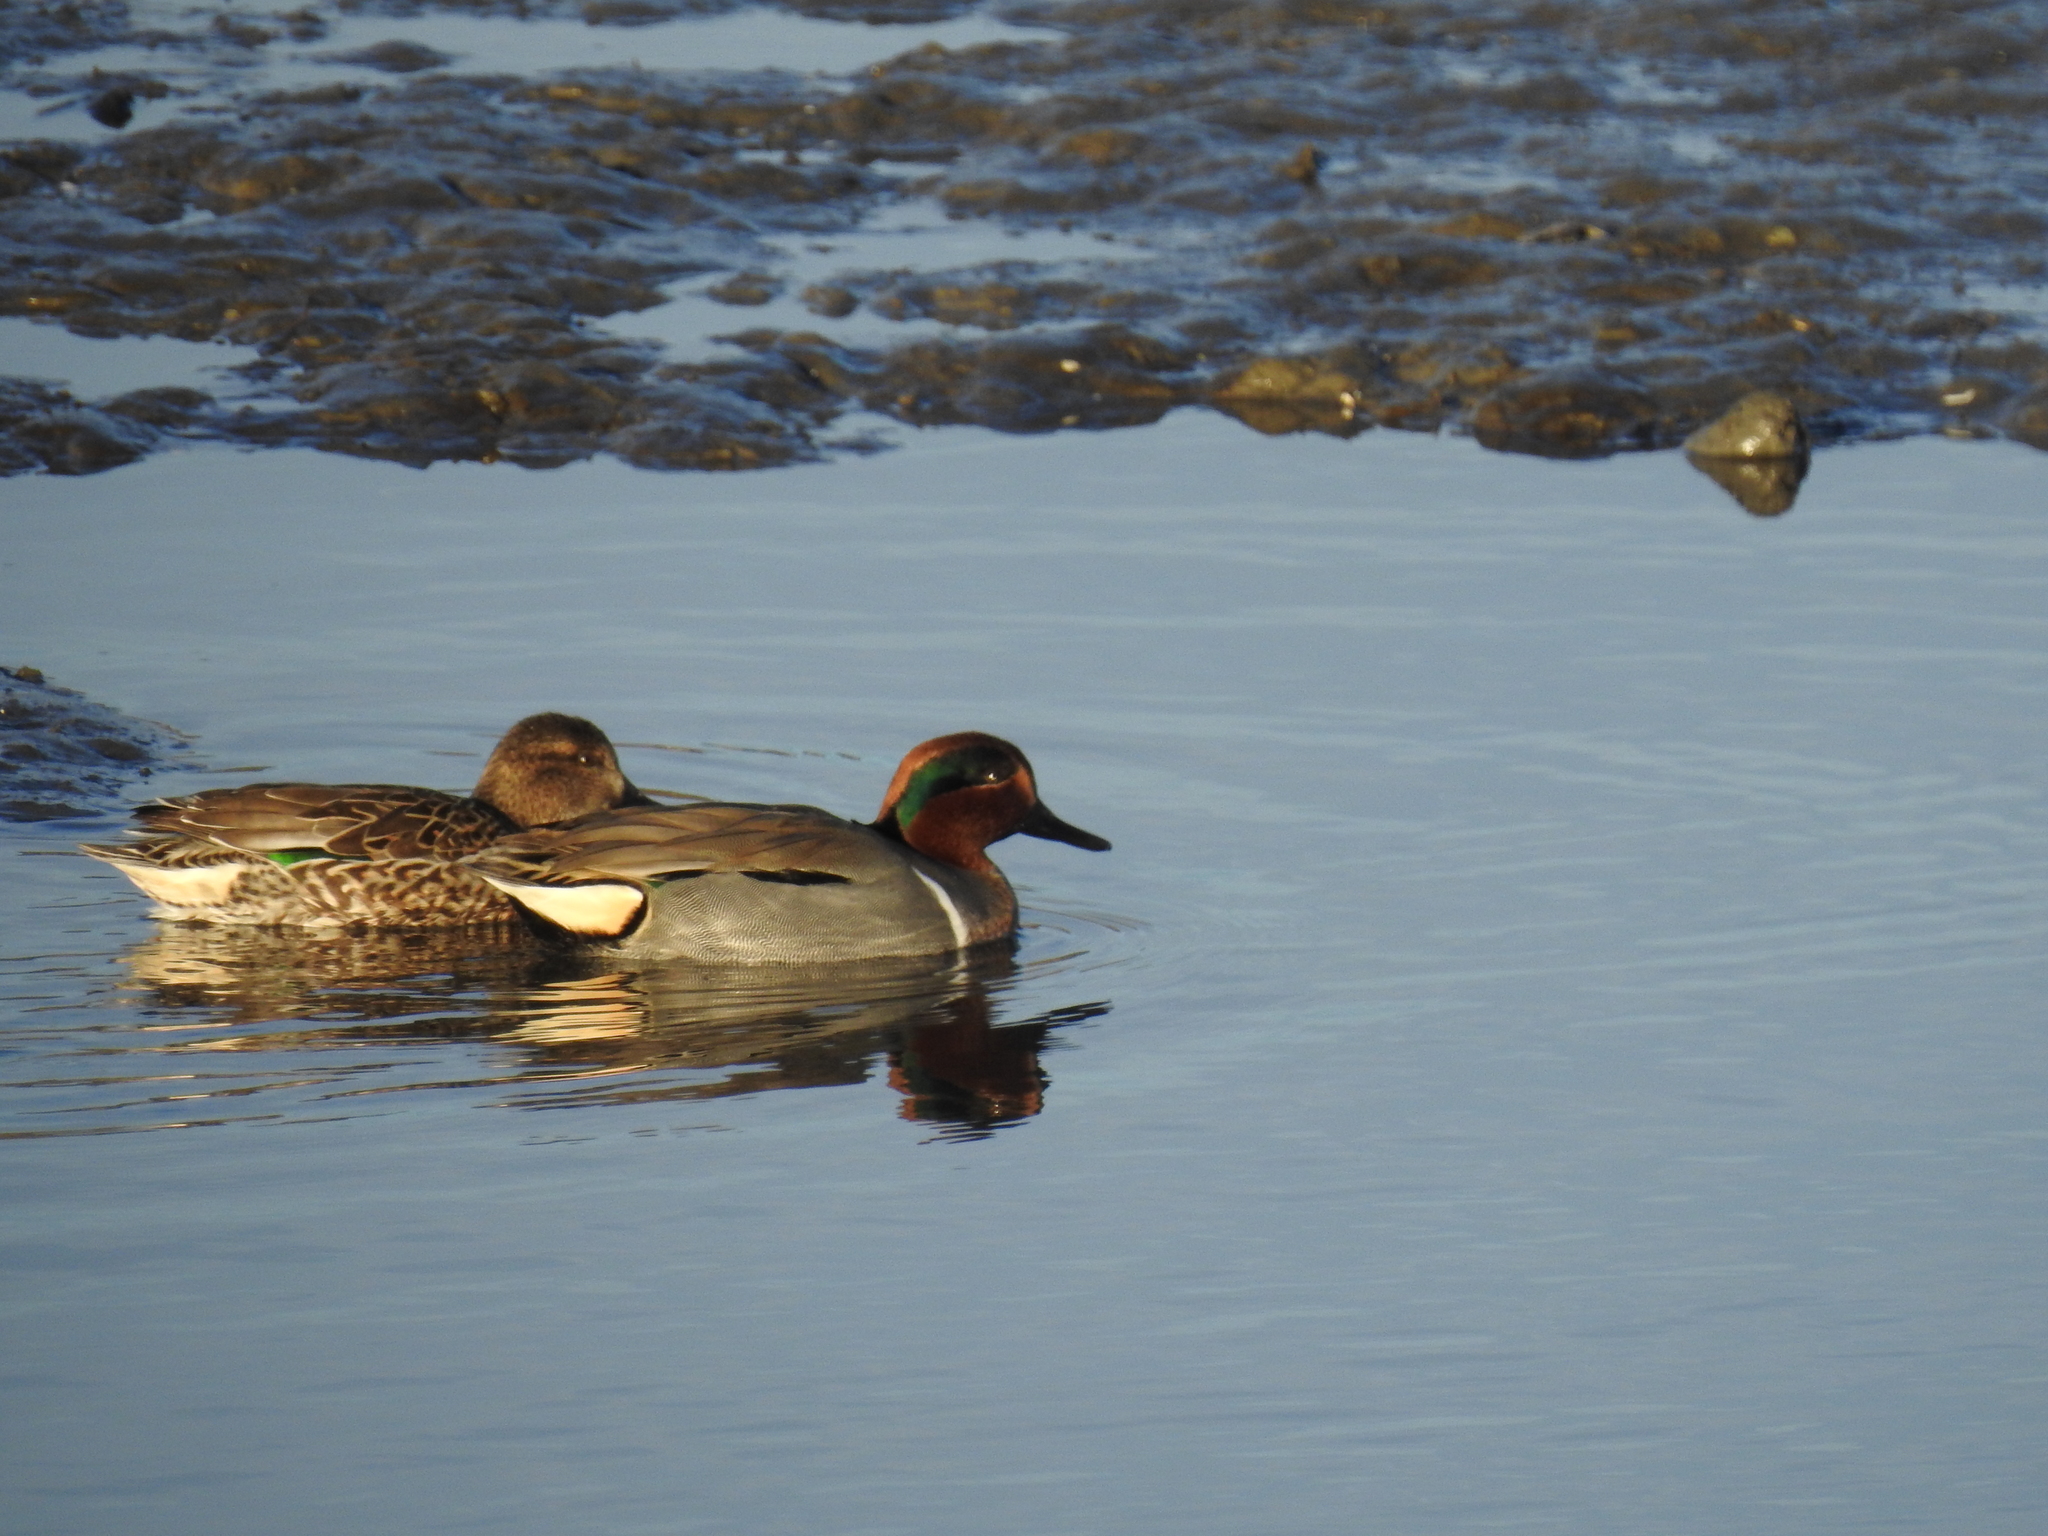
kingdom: Animalia
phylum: Chordata
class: Aves
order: Anseriformes
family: Anatidae
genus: Anas
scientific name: Anas crecca
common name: Eurasian teal
